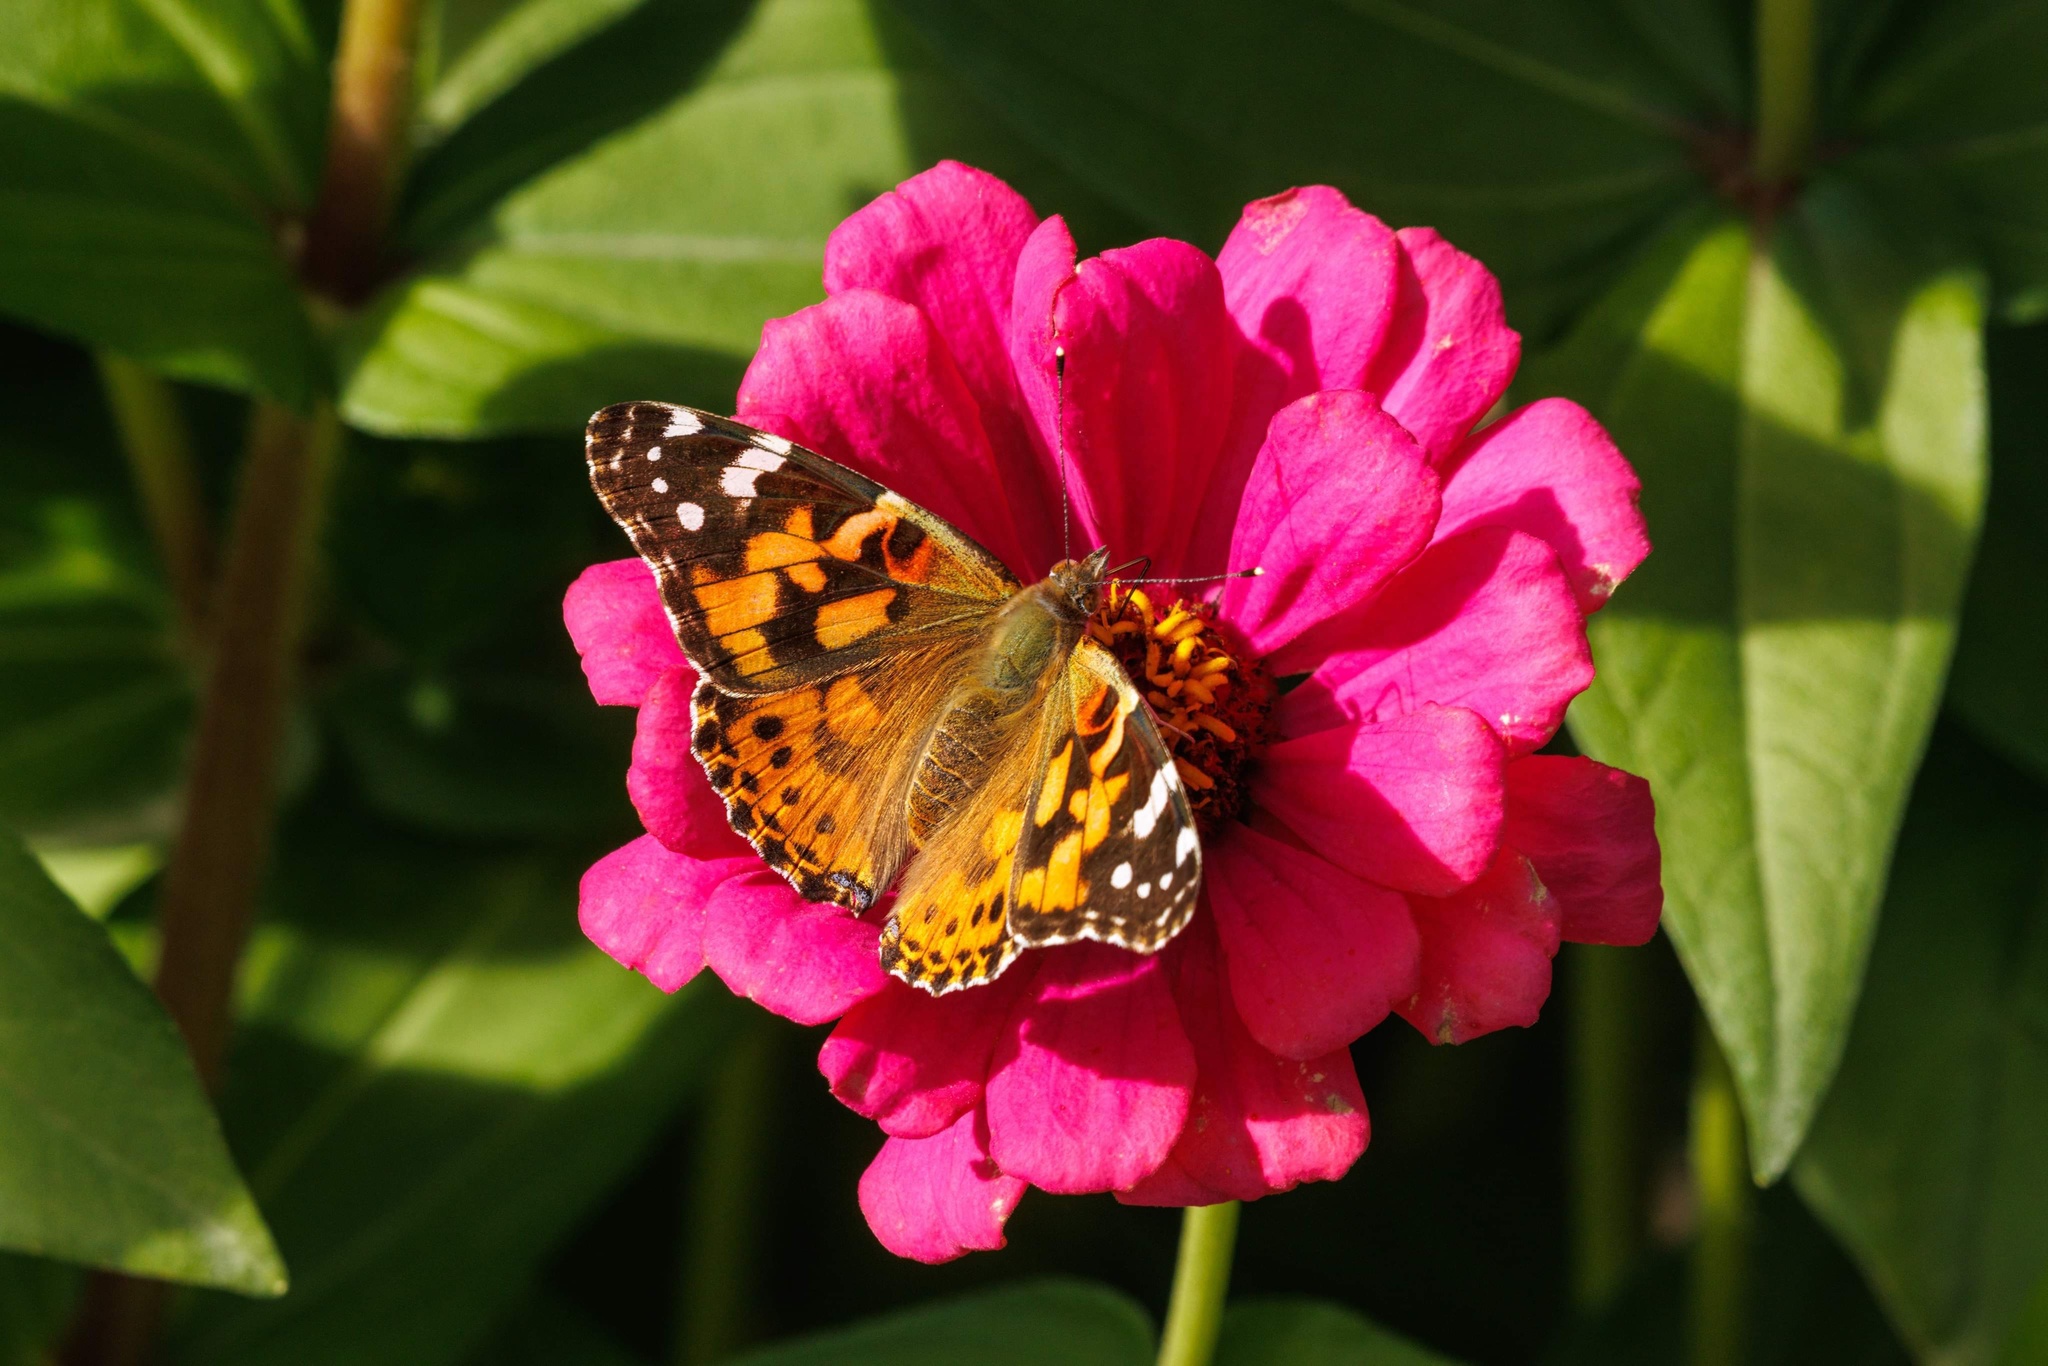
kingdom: Animalia
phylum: Arthropoda
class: Insecta
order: Lepidoptera
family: Nymphalidae
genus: Vanessa
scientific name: Vanessa cardui
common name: Painted lady
